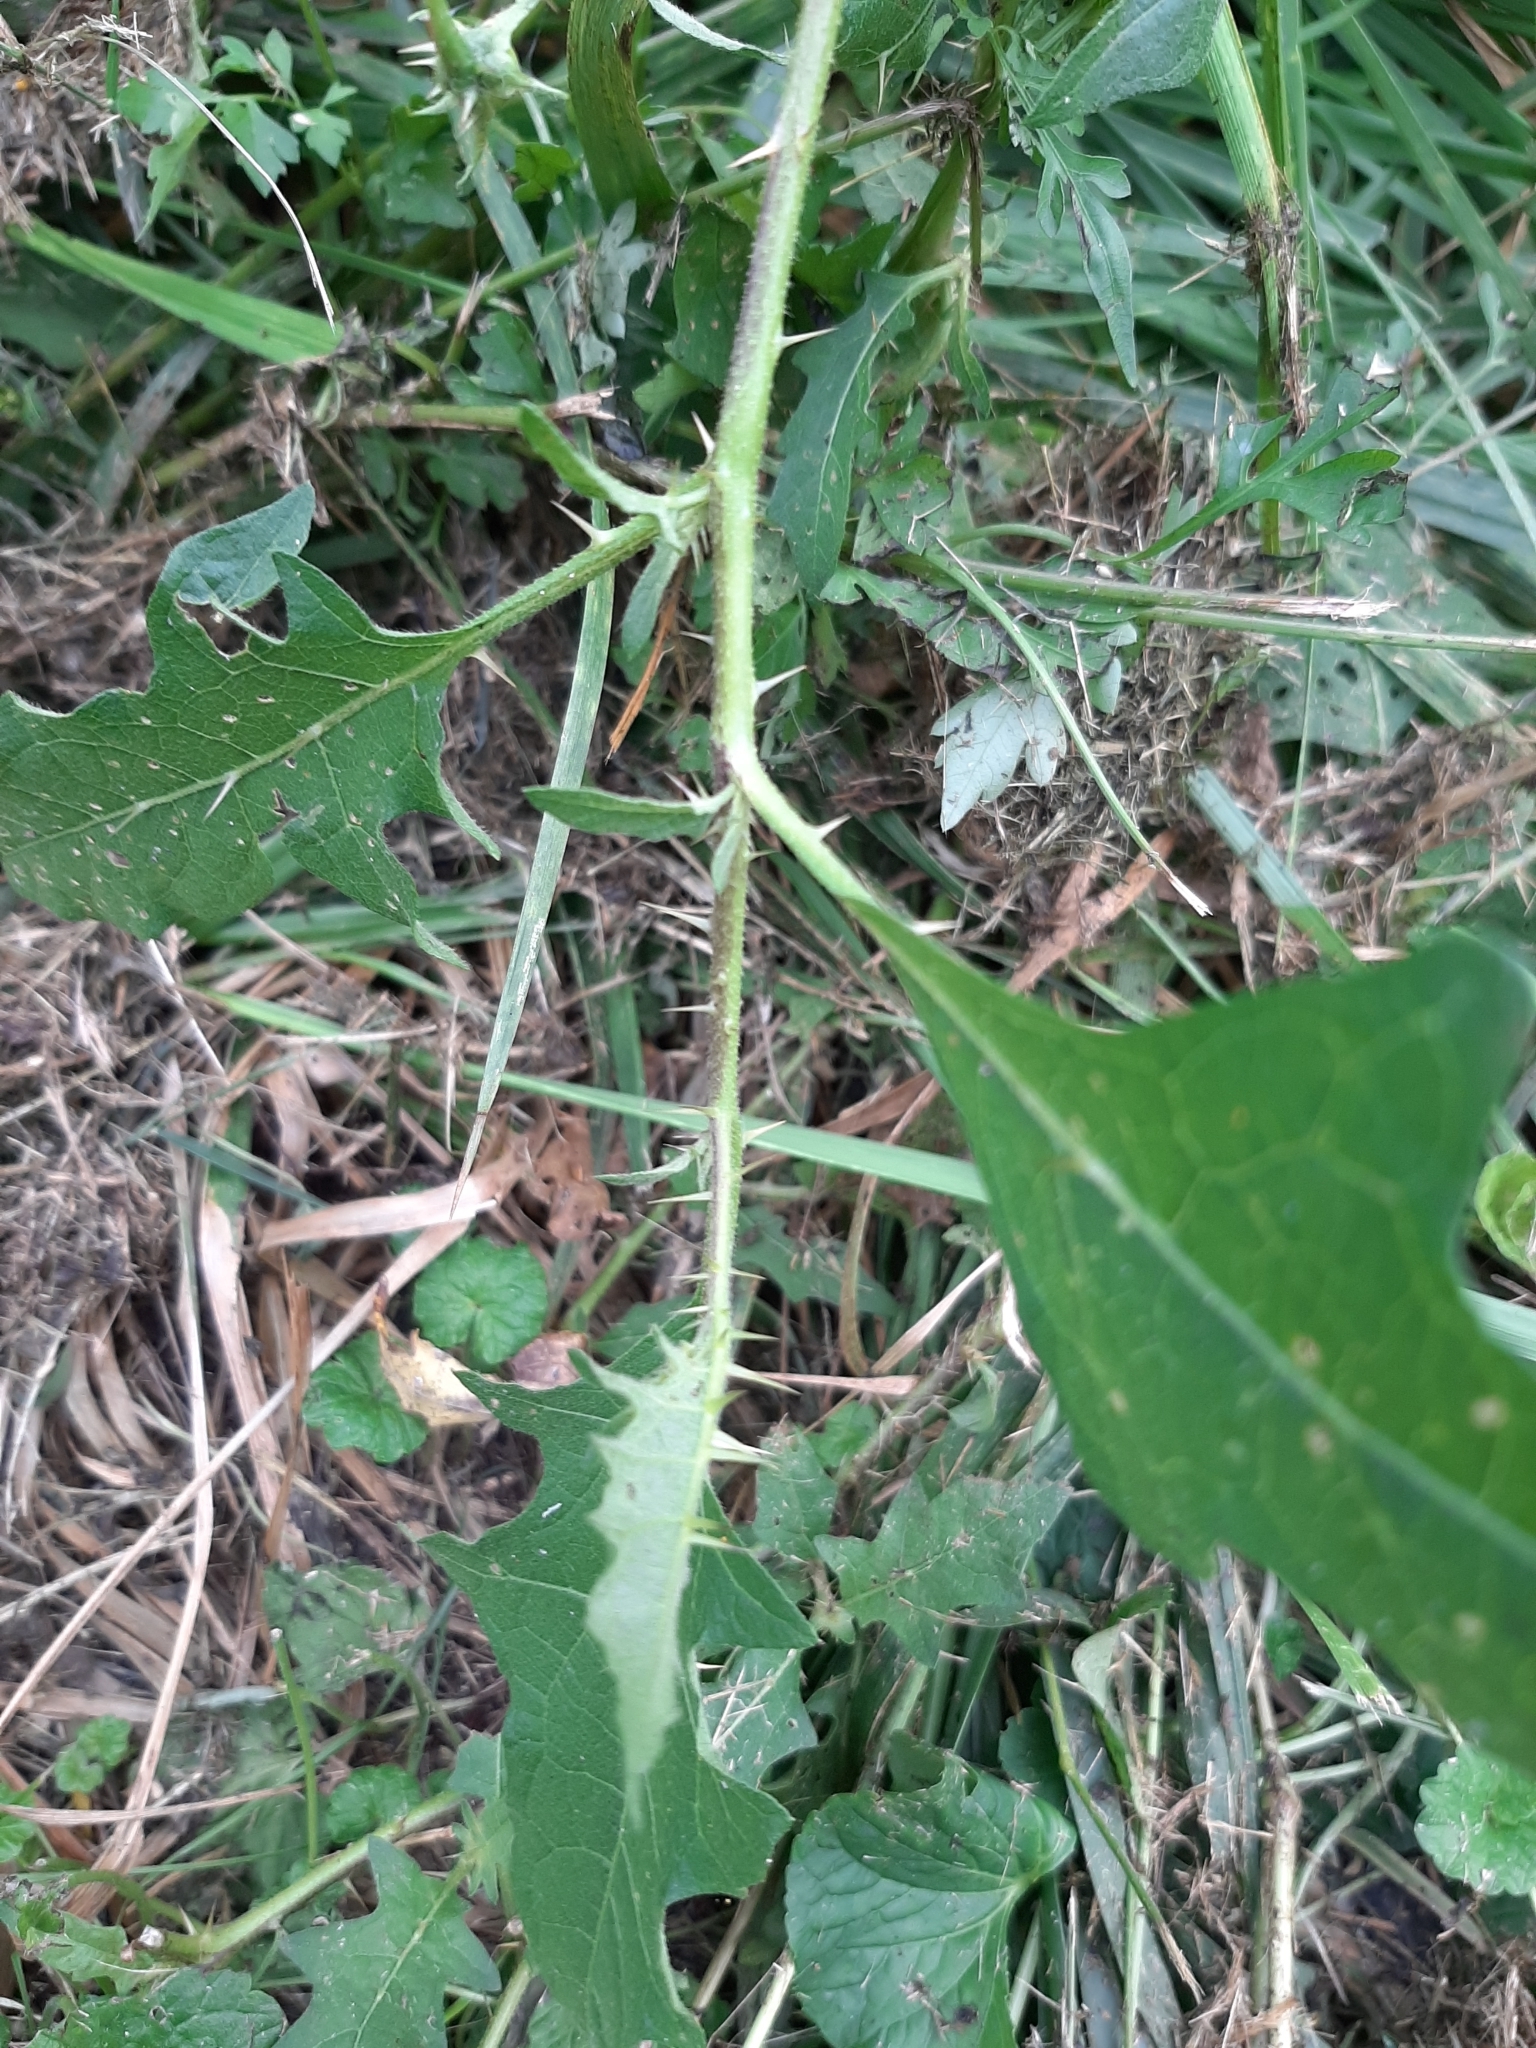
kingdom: Plantae
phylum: Tracheophyta
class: Magnoliopsida
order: Solanales
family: Solanaceae
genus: Solanum
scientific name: Solanum carolinense
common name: Horse-nettle
